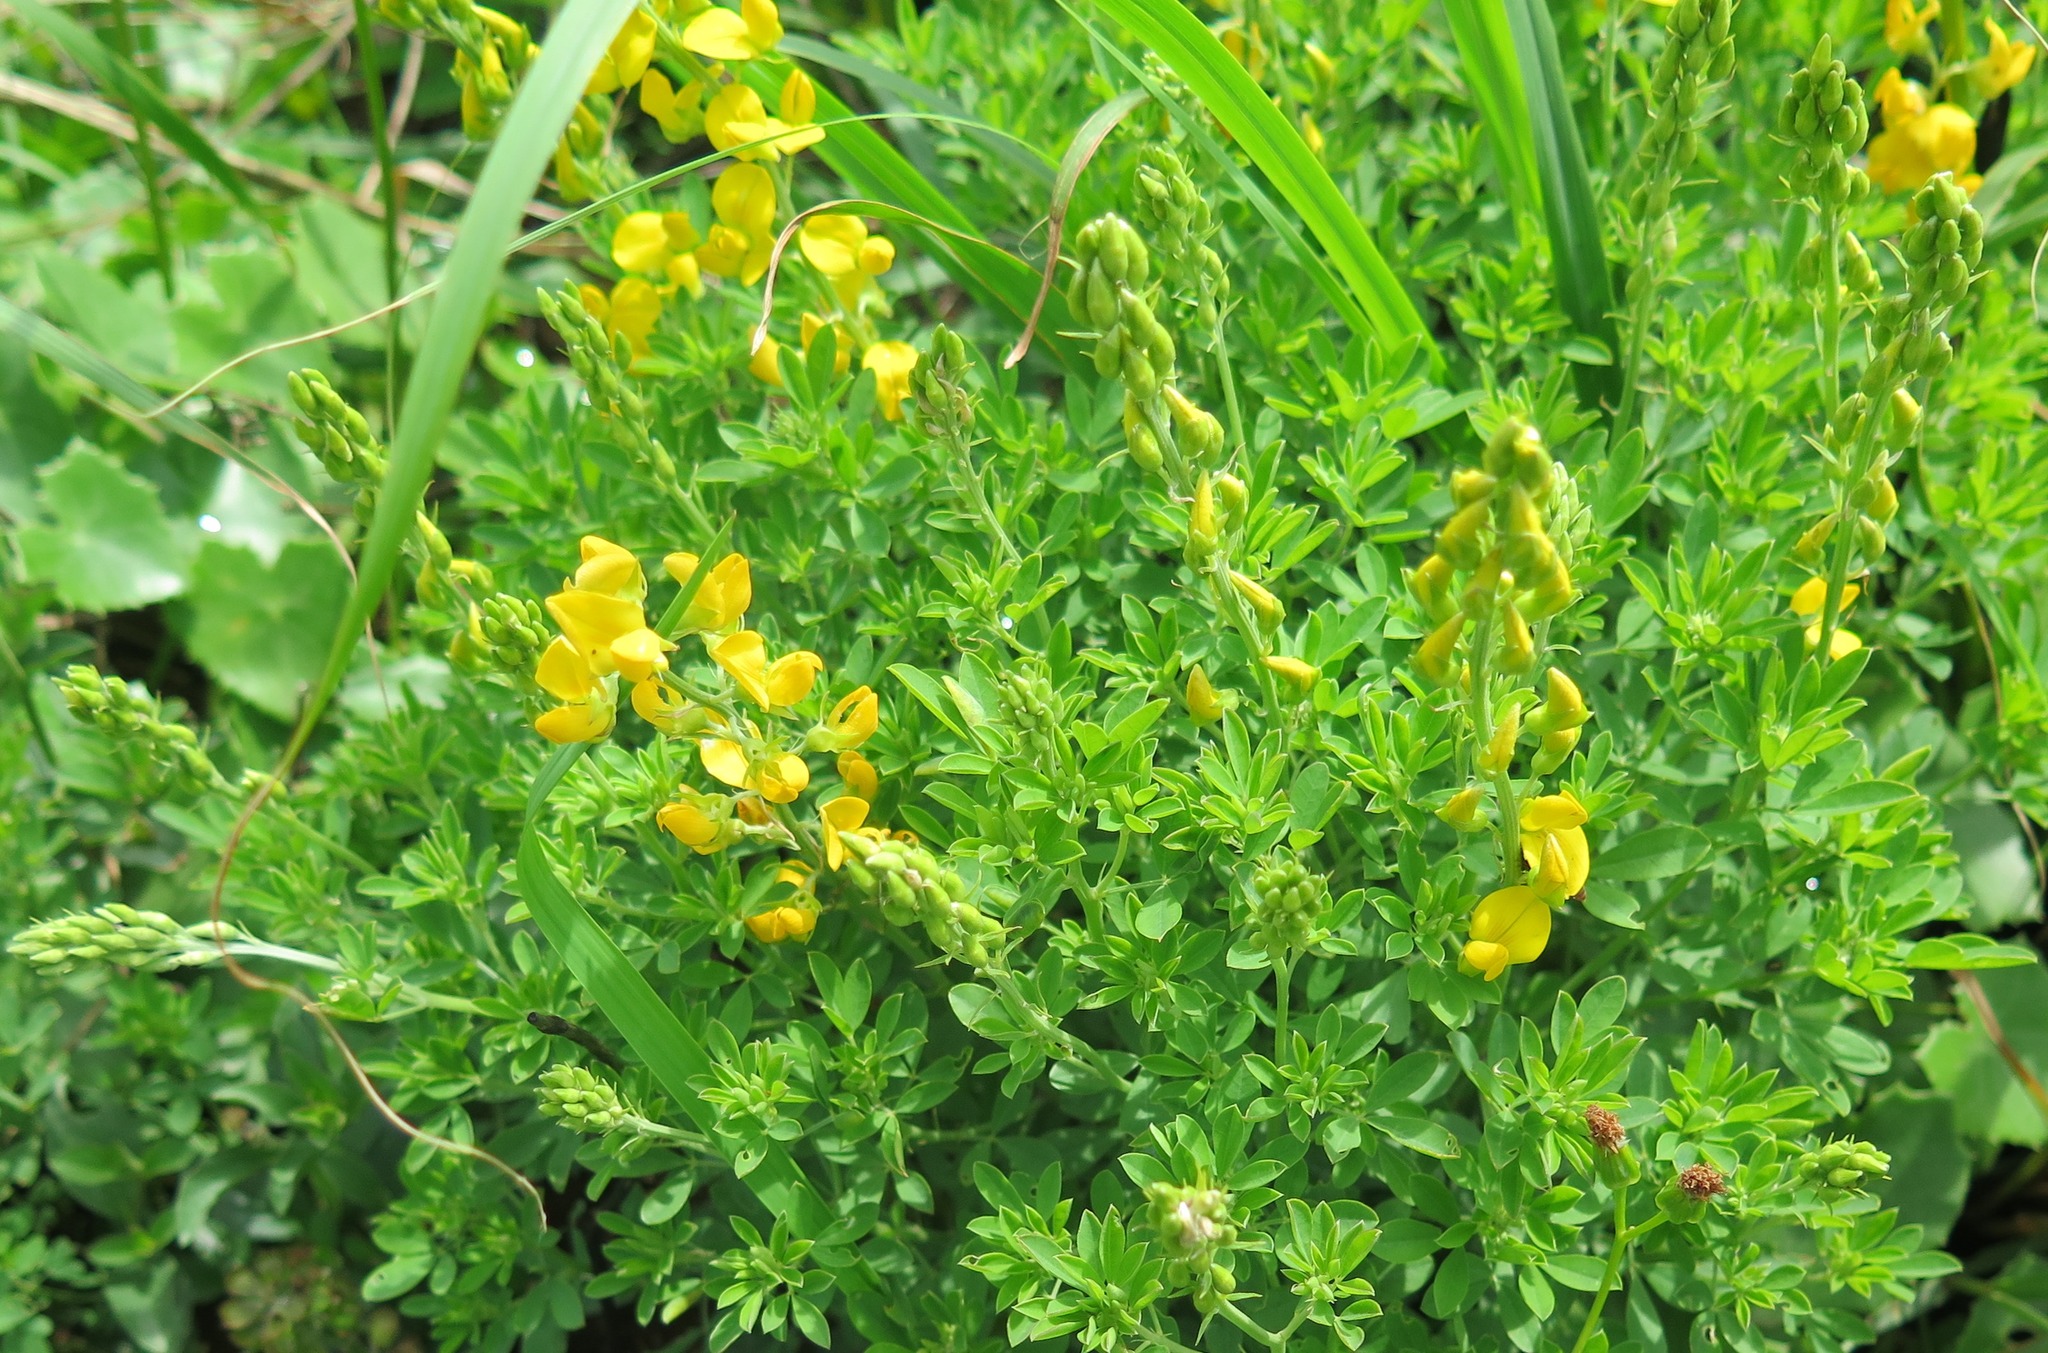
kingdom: Plantae
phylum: Tracheophyta
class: Magnoliopsida
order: Fabales
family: Fabaceae
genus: Crotalaria
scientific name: Crotalaria dura
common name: Wild lucerne
